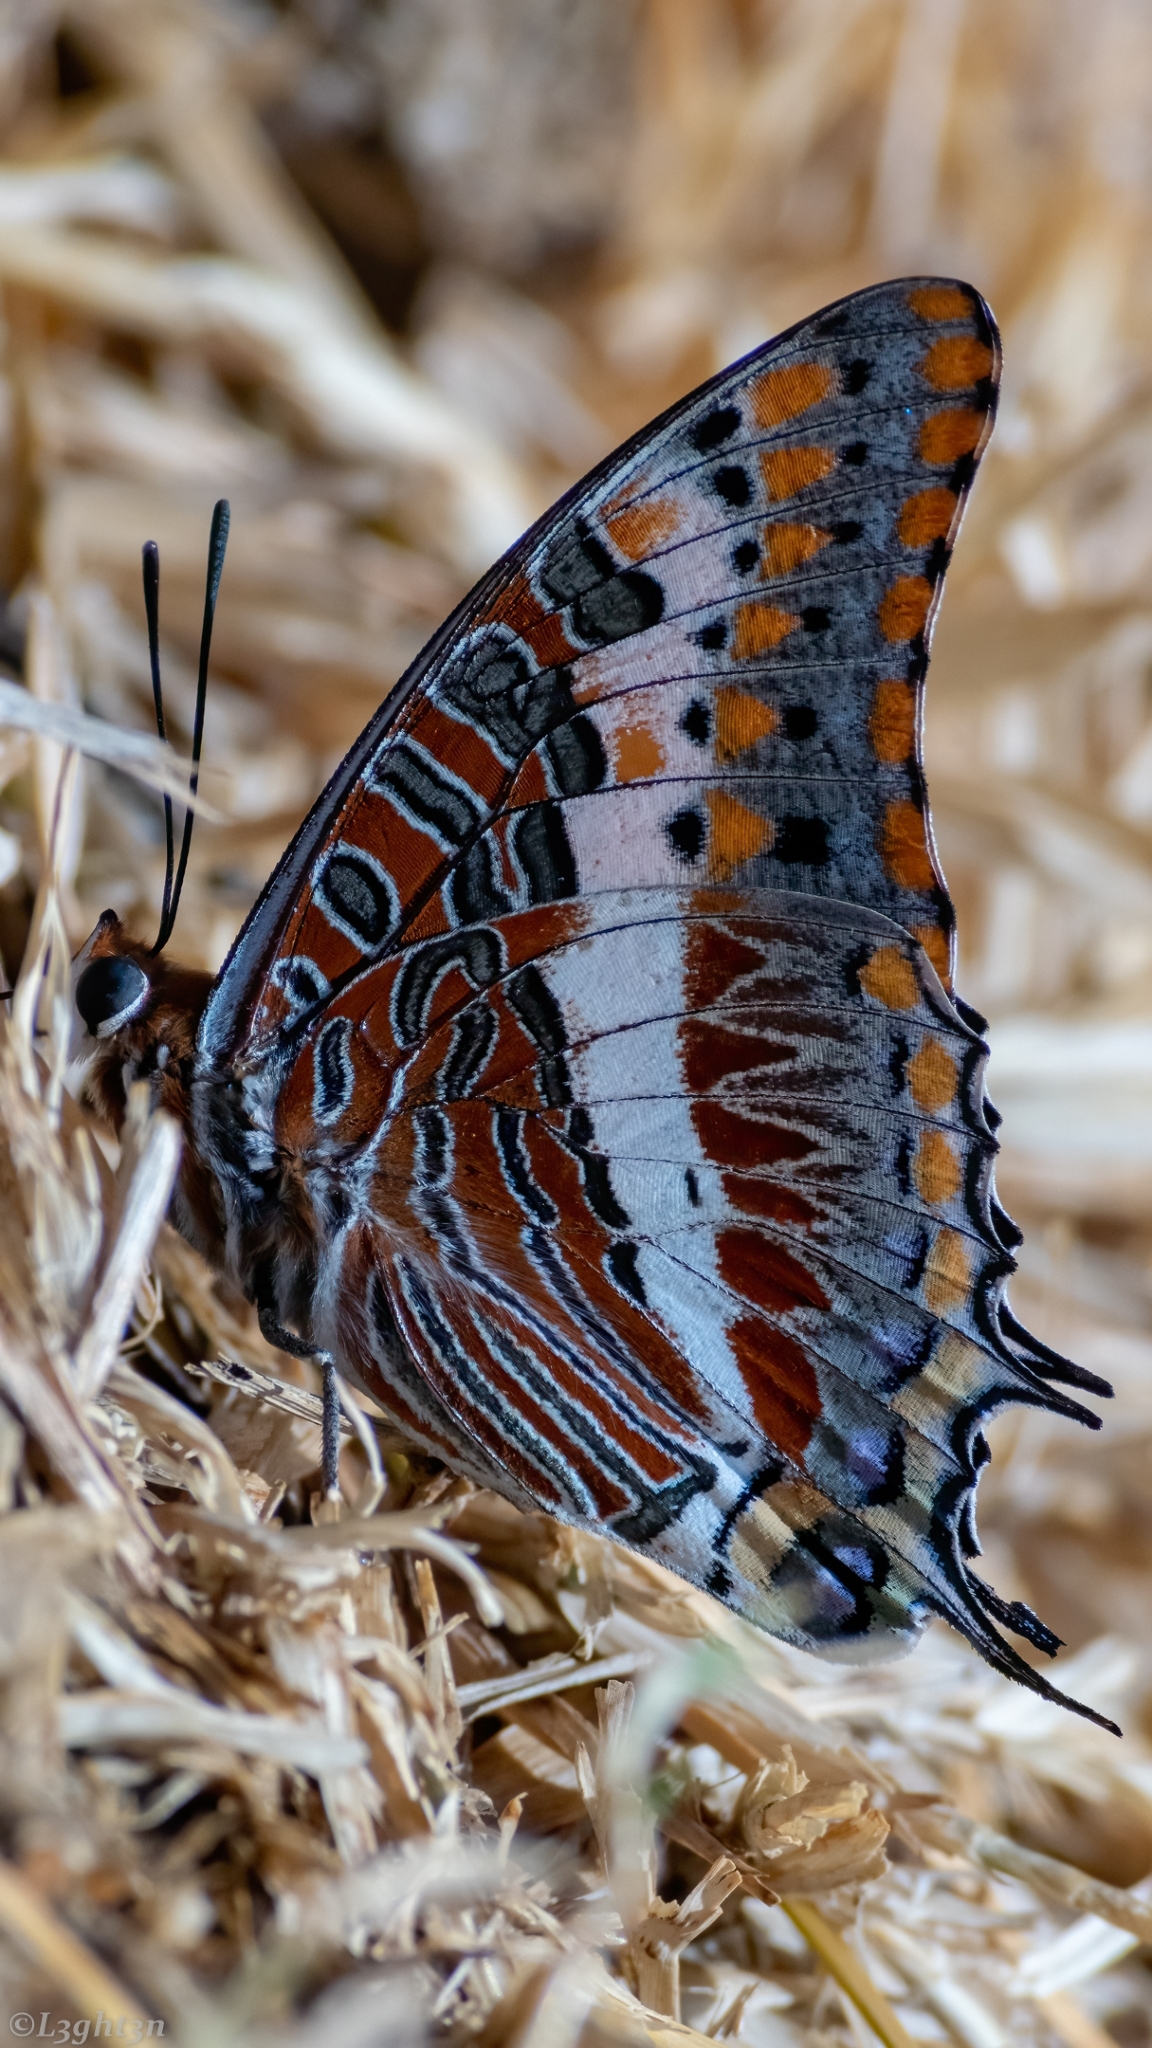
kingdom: Animalia
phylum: Arthropoda
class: Insecta
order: Lepidoptera
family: Nymphalidae
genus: Charaxes
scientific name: Charaxes jasius
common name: Two tailed pasha
